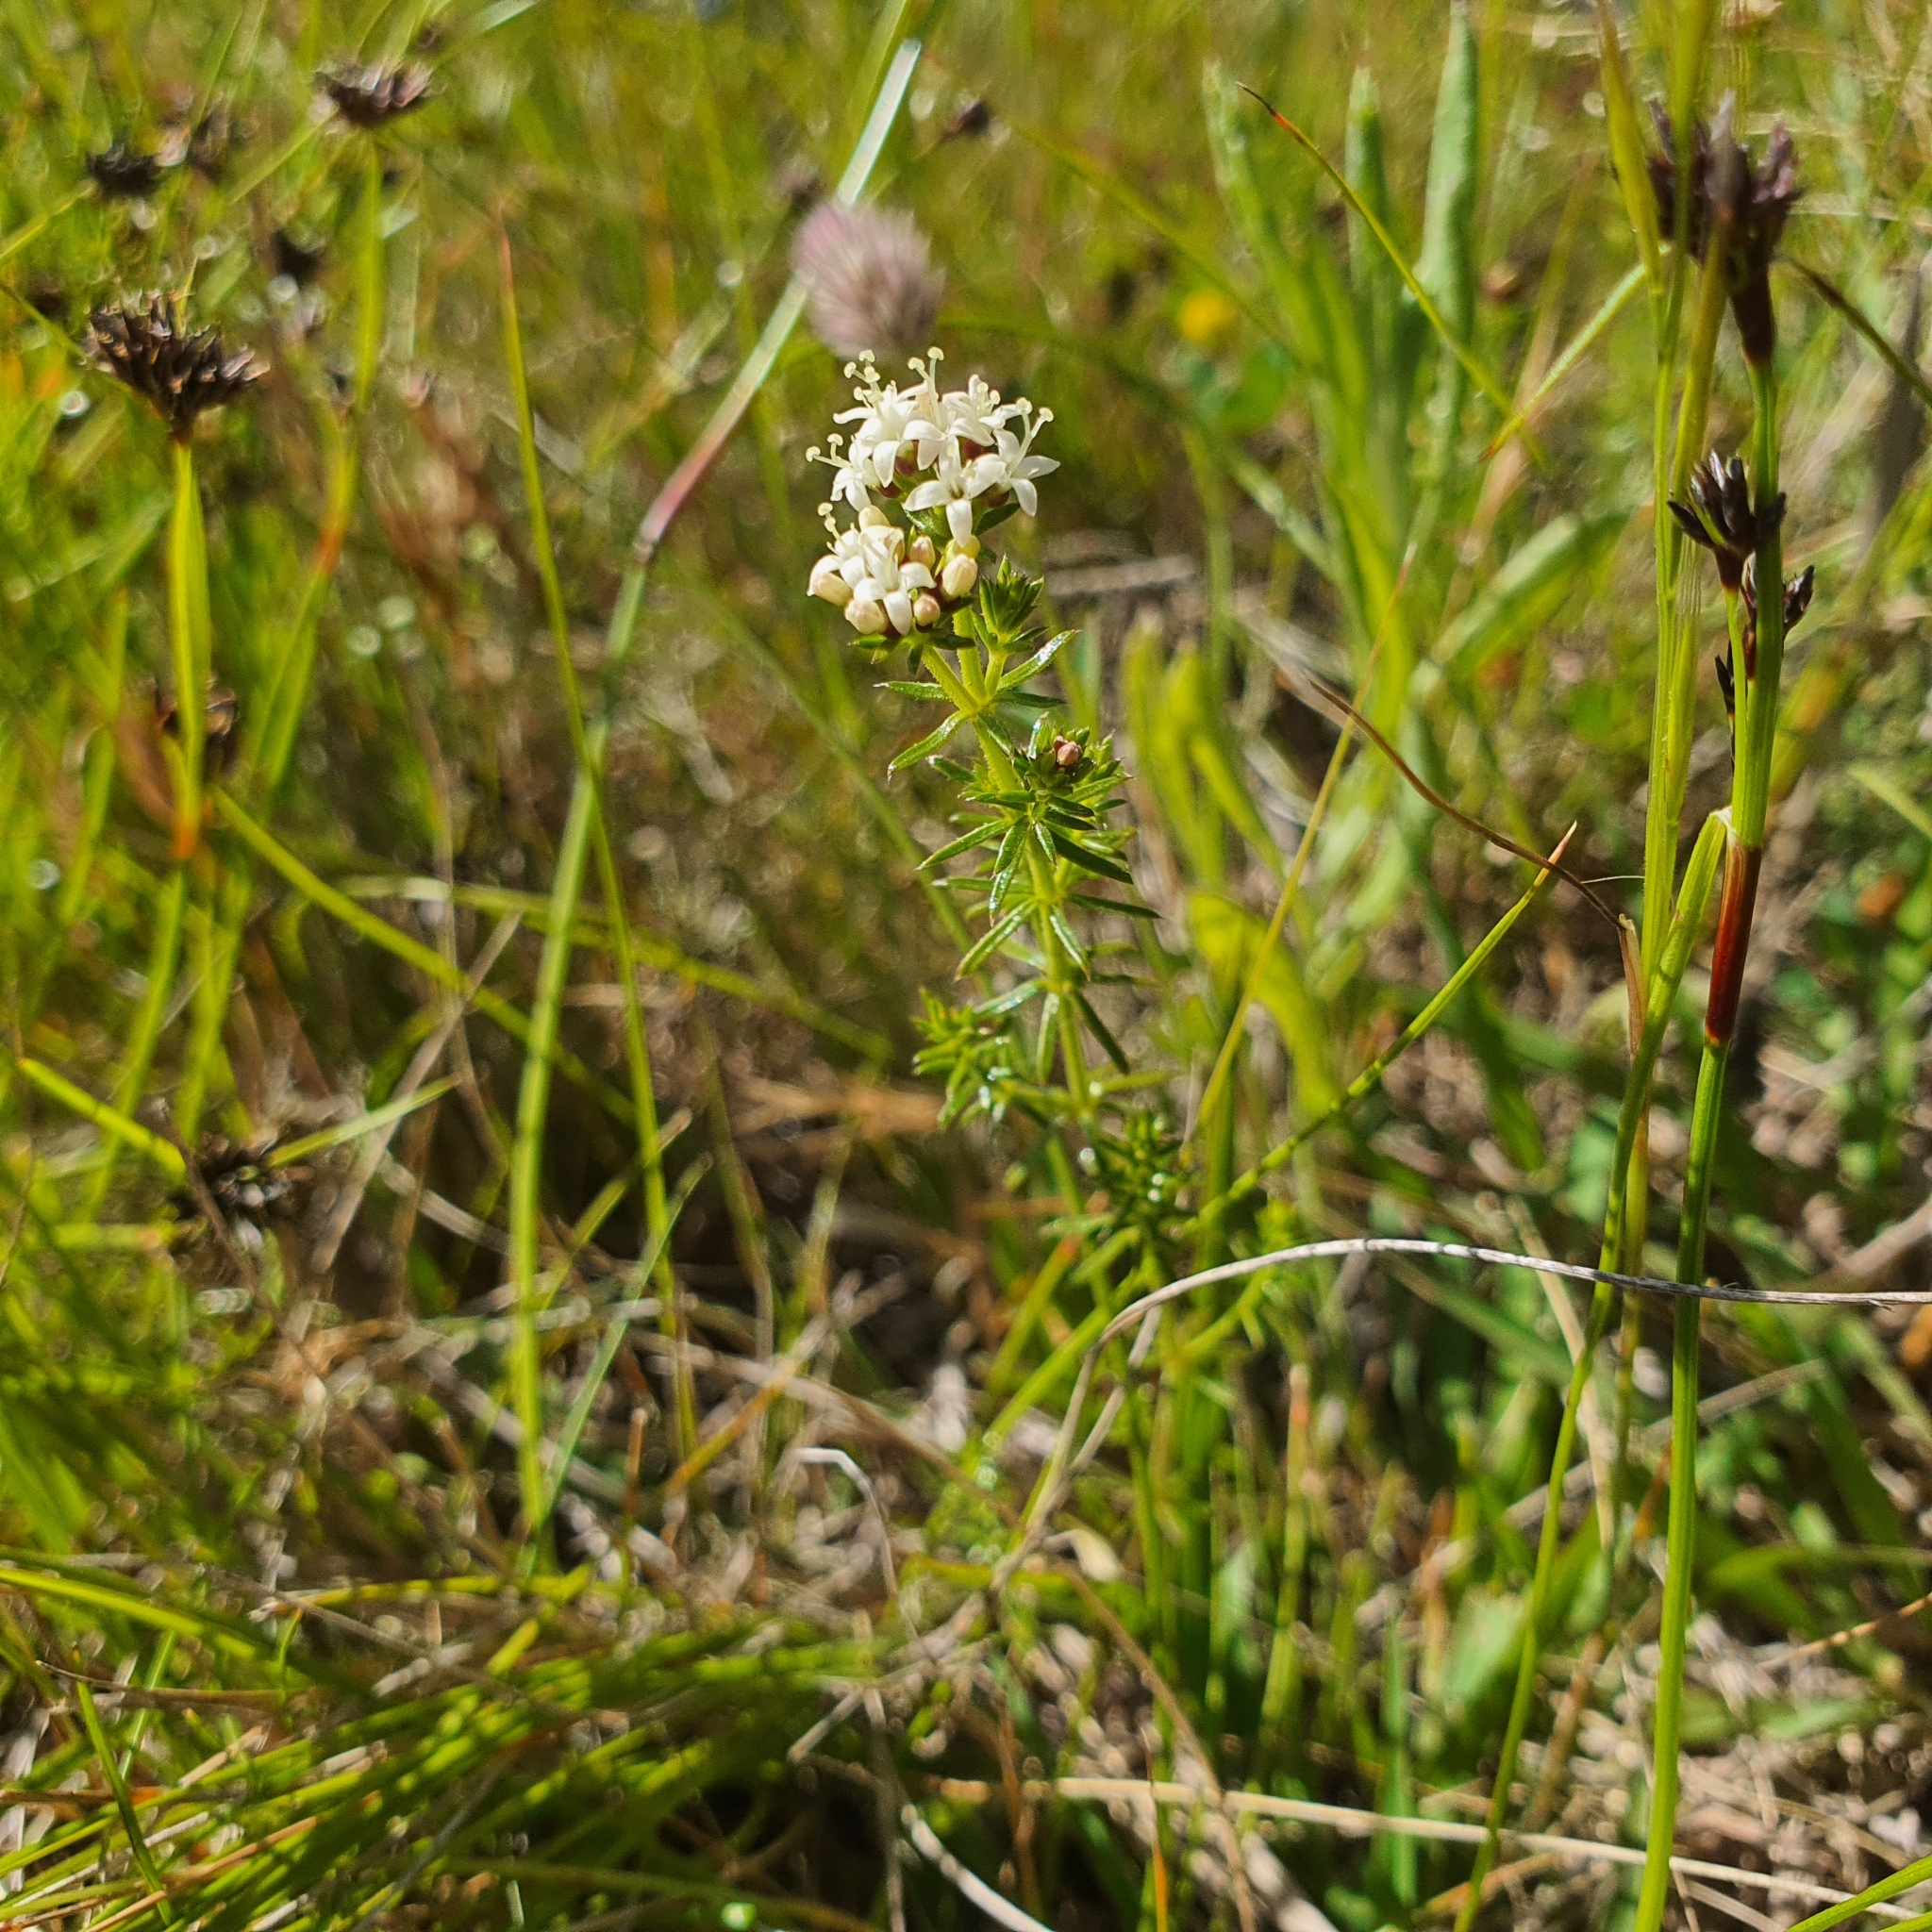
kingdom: Plantae
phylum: Tracheophyta
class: Magnoliopsida
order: Gentianales
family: Rubiaceae
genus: Asperula
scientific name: Asperula conferta
